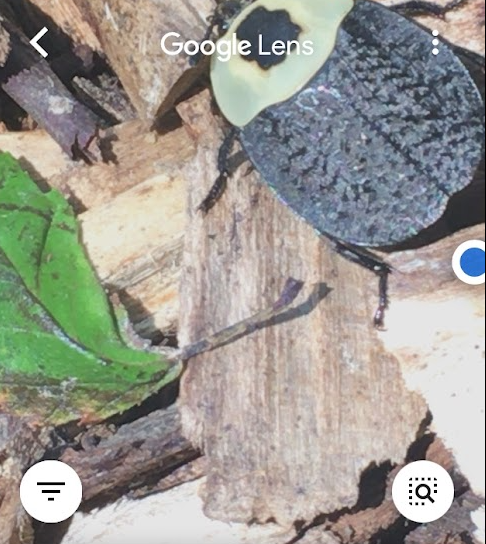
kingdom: Animalia
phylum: Arthropoda
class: Insecta
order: Coleoptera
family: Staphylinidae
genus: Necrophila
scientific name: Necrophila americana
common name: American carrion beetle
